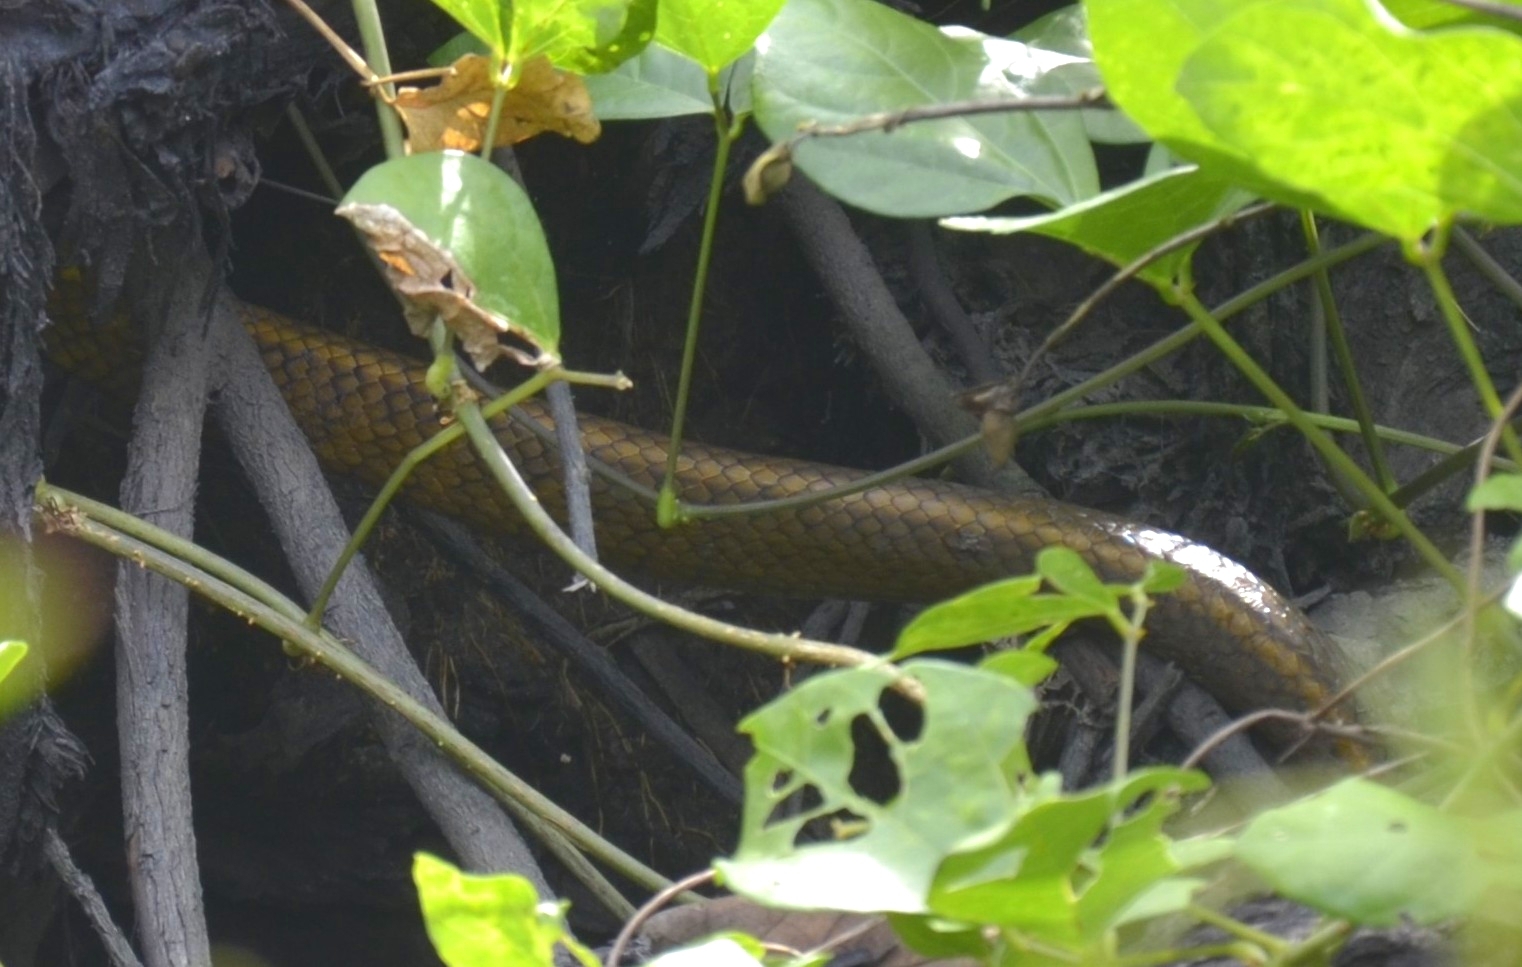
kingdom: Animalia
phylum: Chordata
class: Squamata
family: Colubridae
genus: Ptyas
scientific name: Ptyas mucosa
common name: Oriental ratsnake
